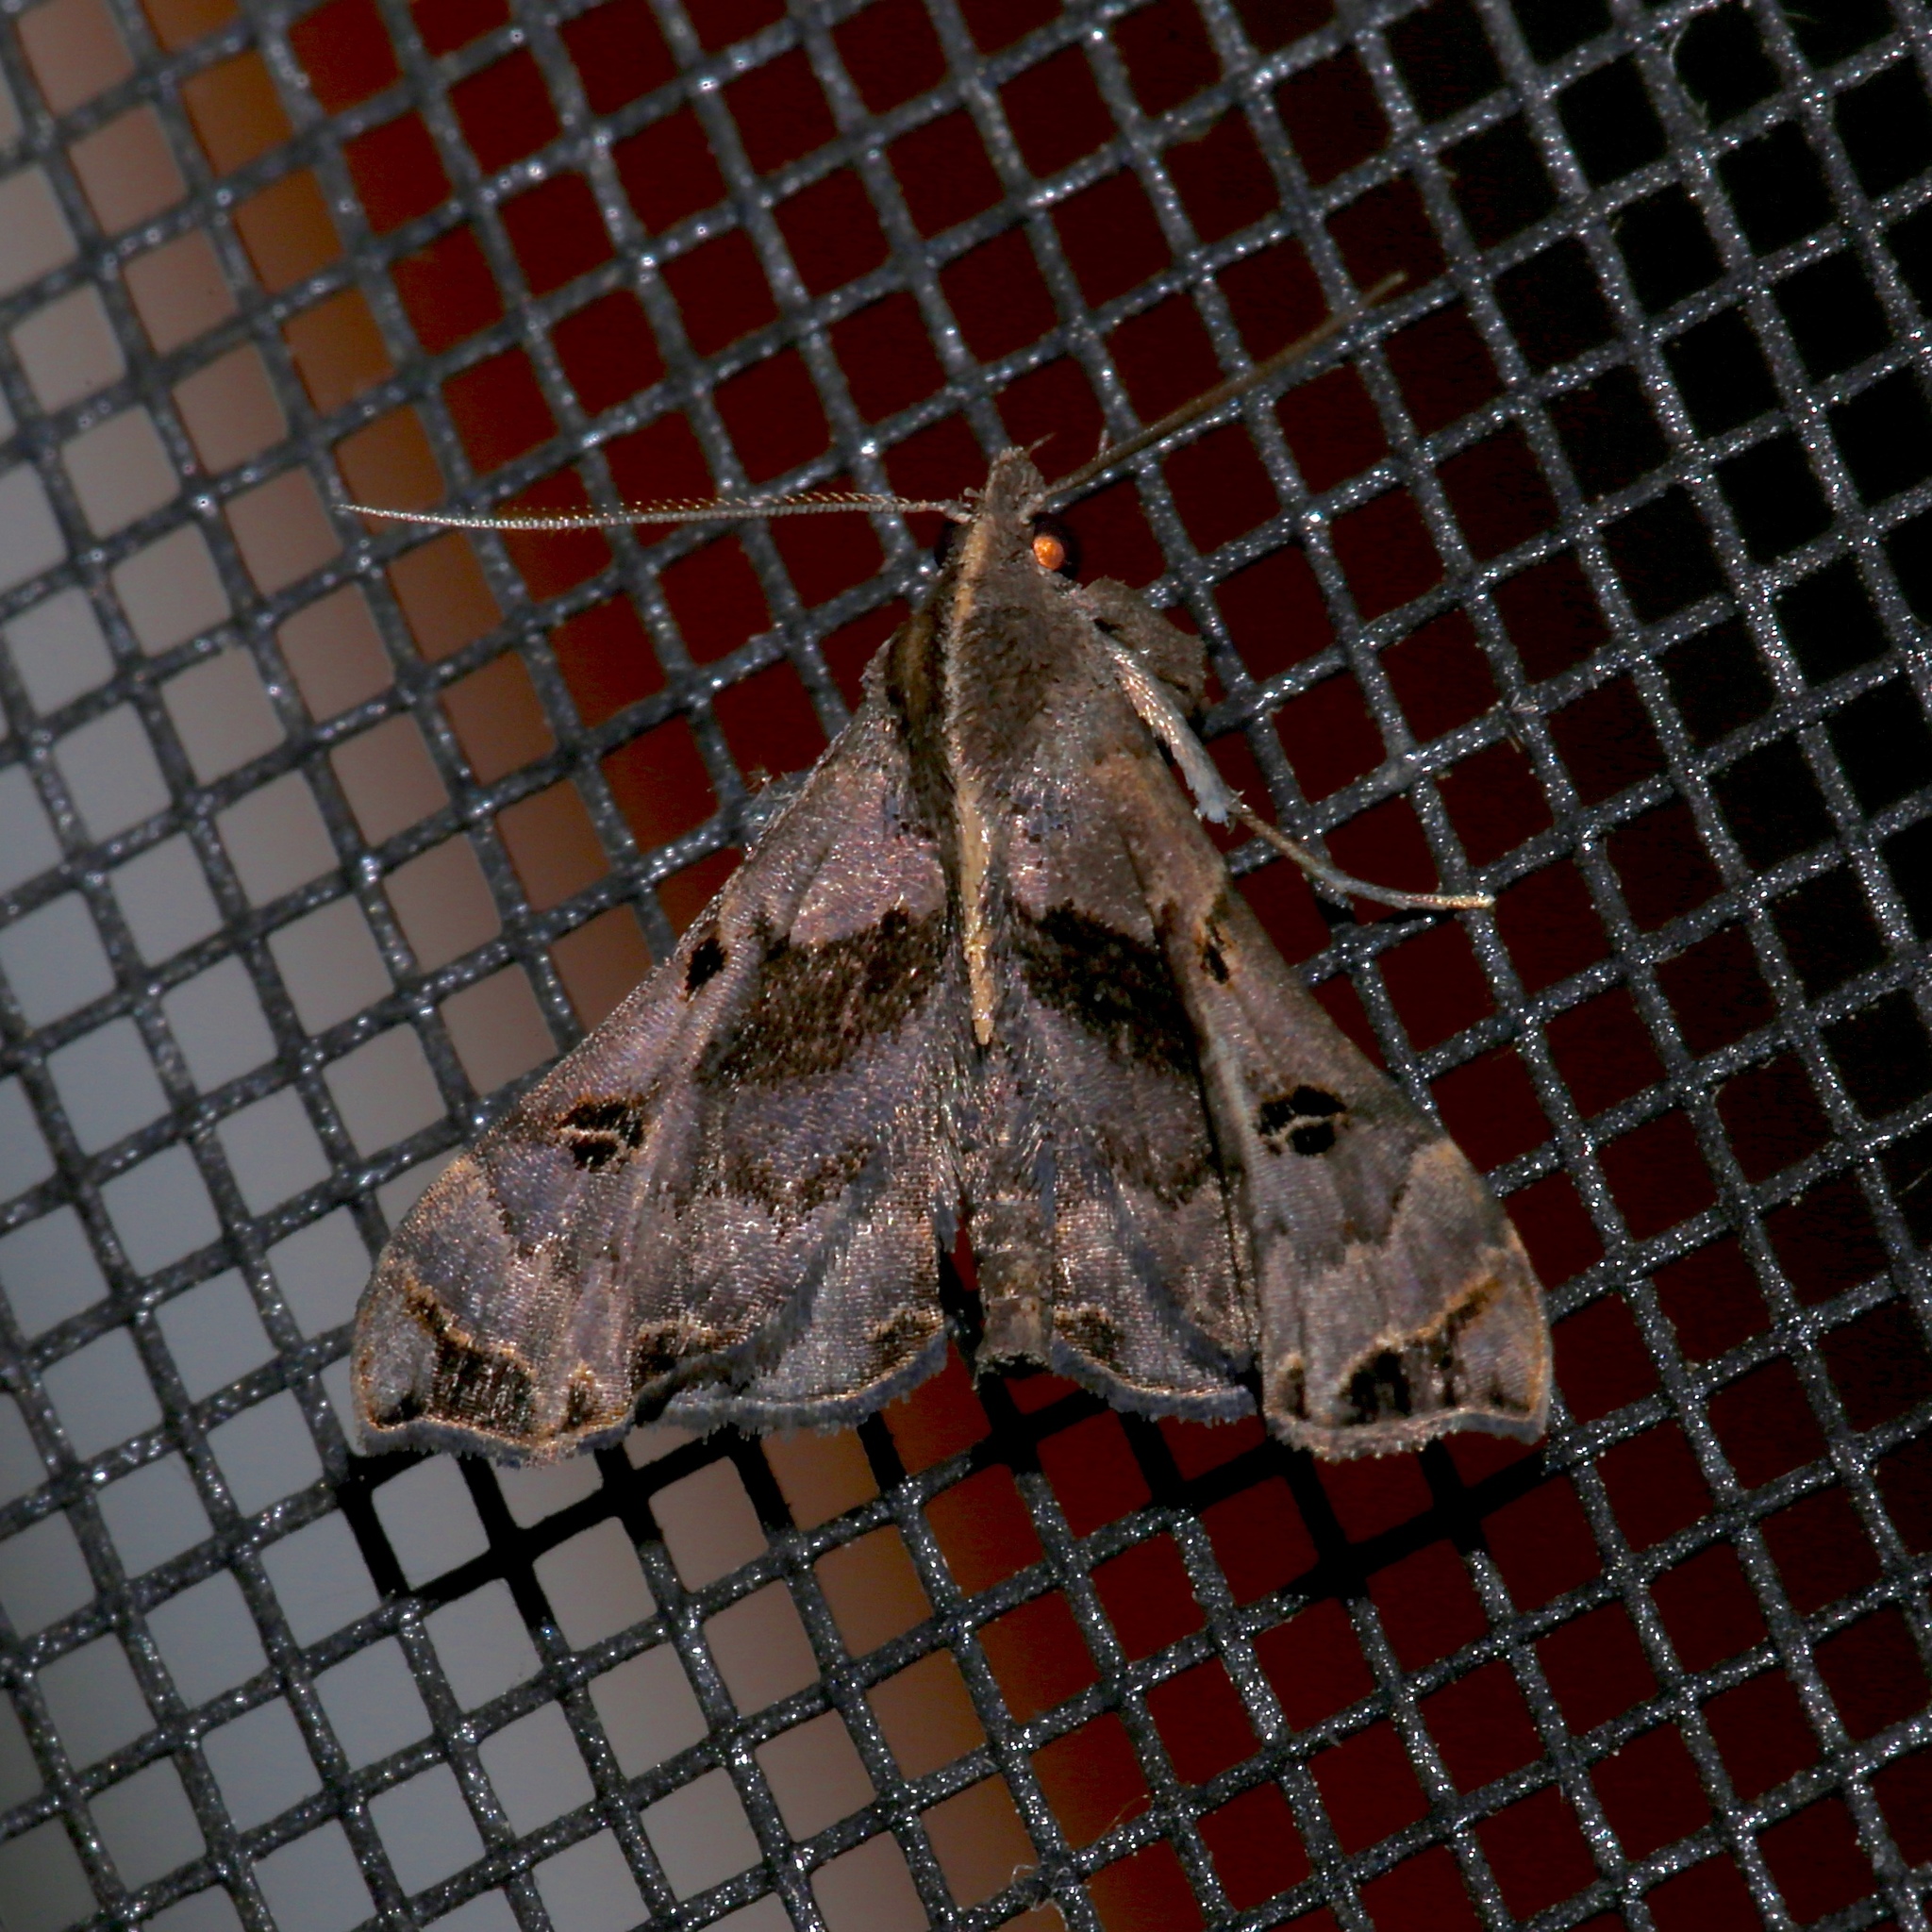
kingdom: Animalia
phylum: Arthropoda
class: Insecta
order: Lepidoptera
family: Erebidae
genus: Palthis
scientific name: Palthis asopialis
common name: Faint-spotted palthis moth
